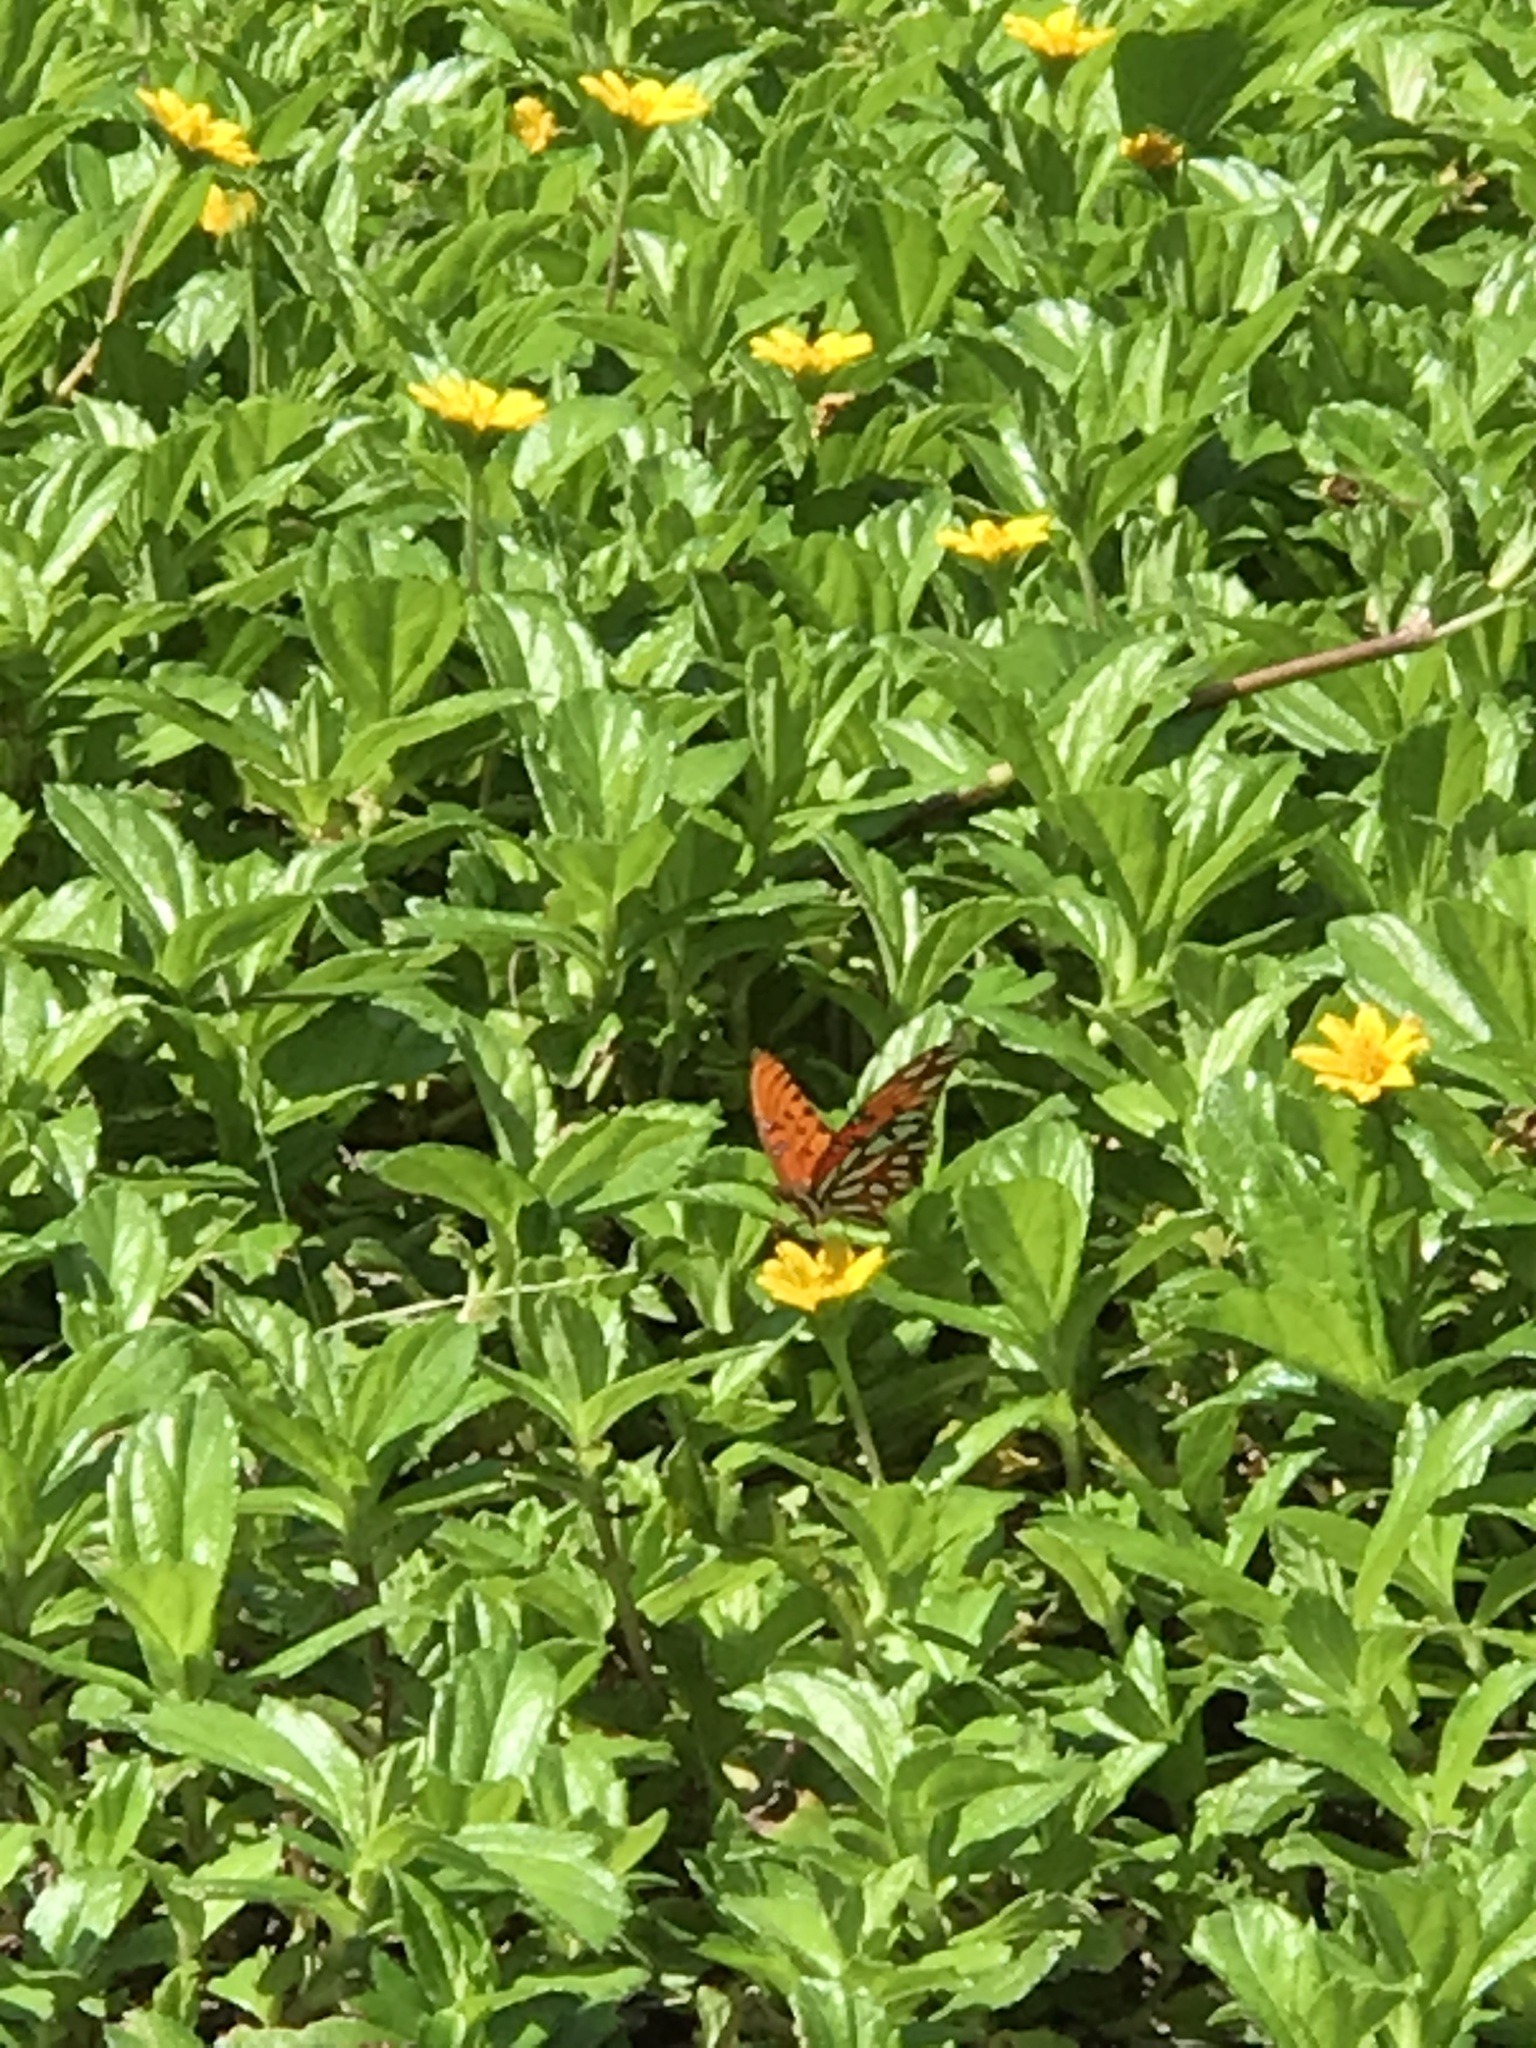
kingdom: Animalia
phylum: Arthropoda
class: Insecta
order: Lepidoptera
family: Nymphalidae
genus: Dione
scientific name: Dione vanillae
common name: Gulf fritillary
